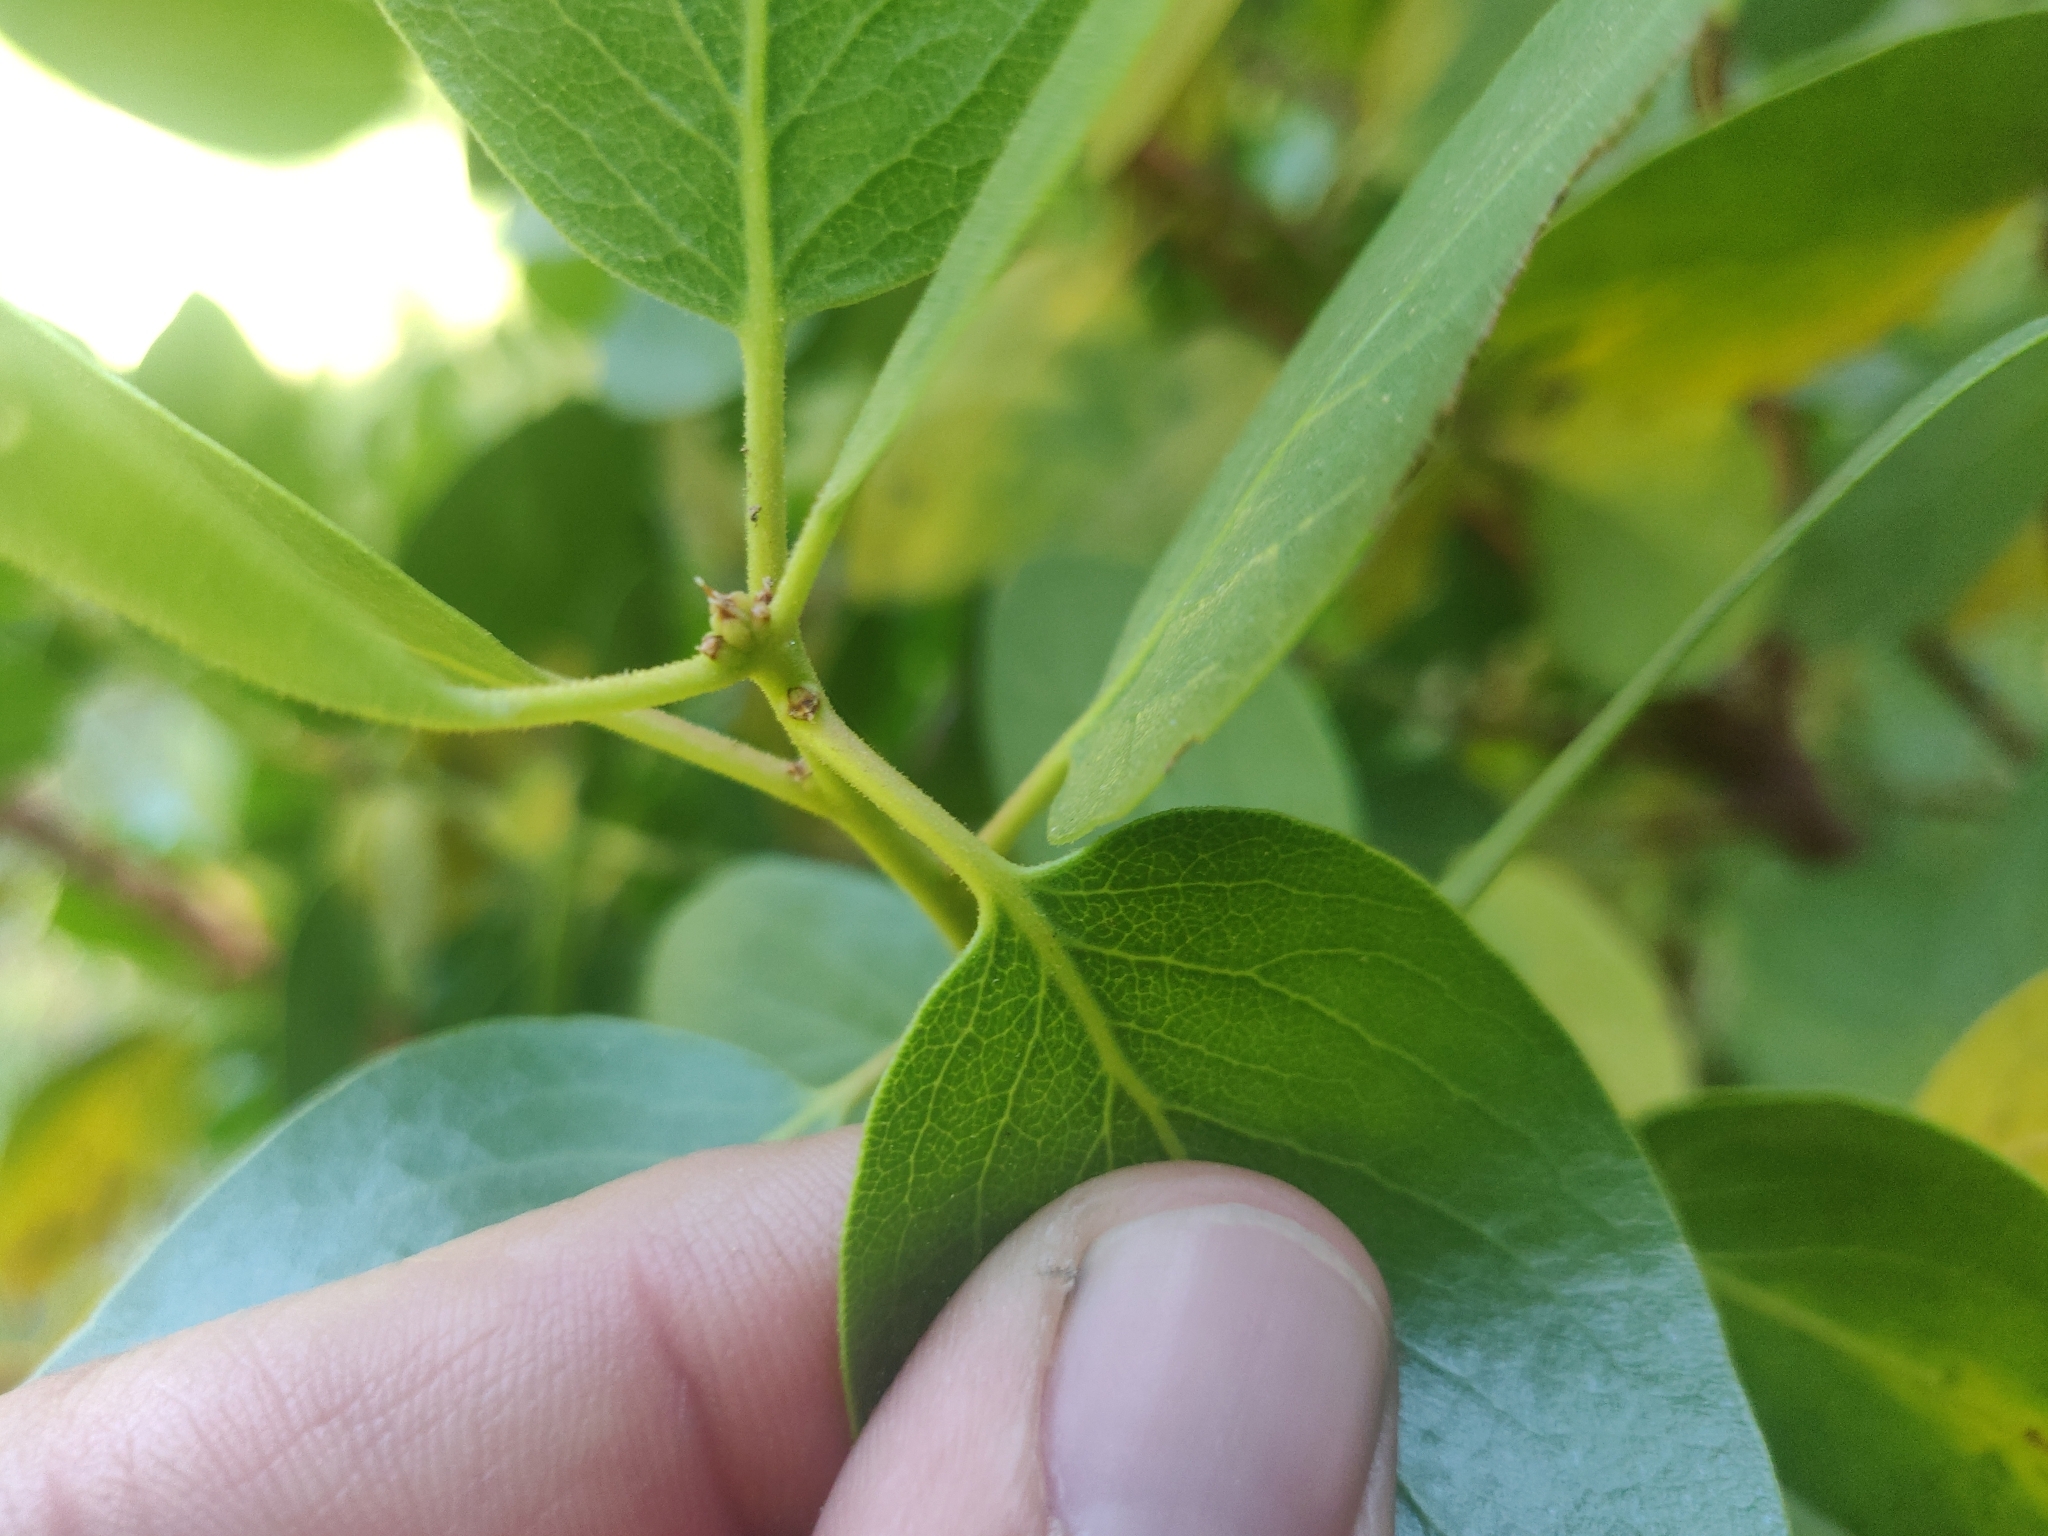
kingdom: Plantae
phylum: Tracheophyta
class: Magnoliopsida
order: Ericales
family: Ericaceae
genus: Arctostaphylos
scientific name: Arctostaphylos patula
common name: Green-leaf manzanita
